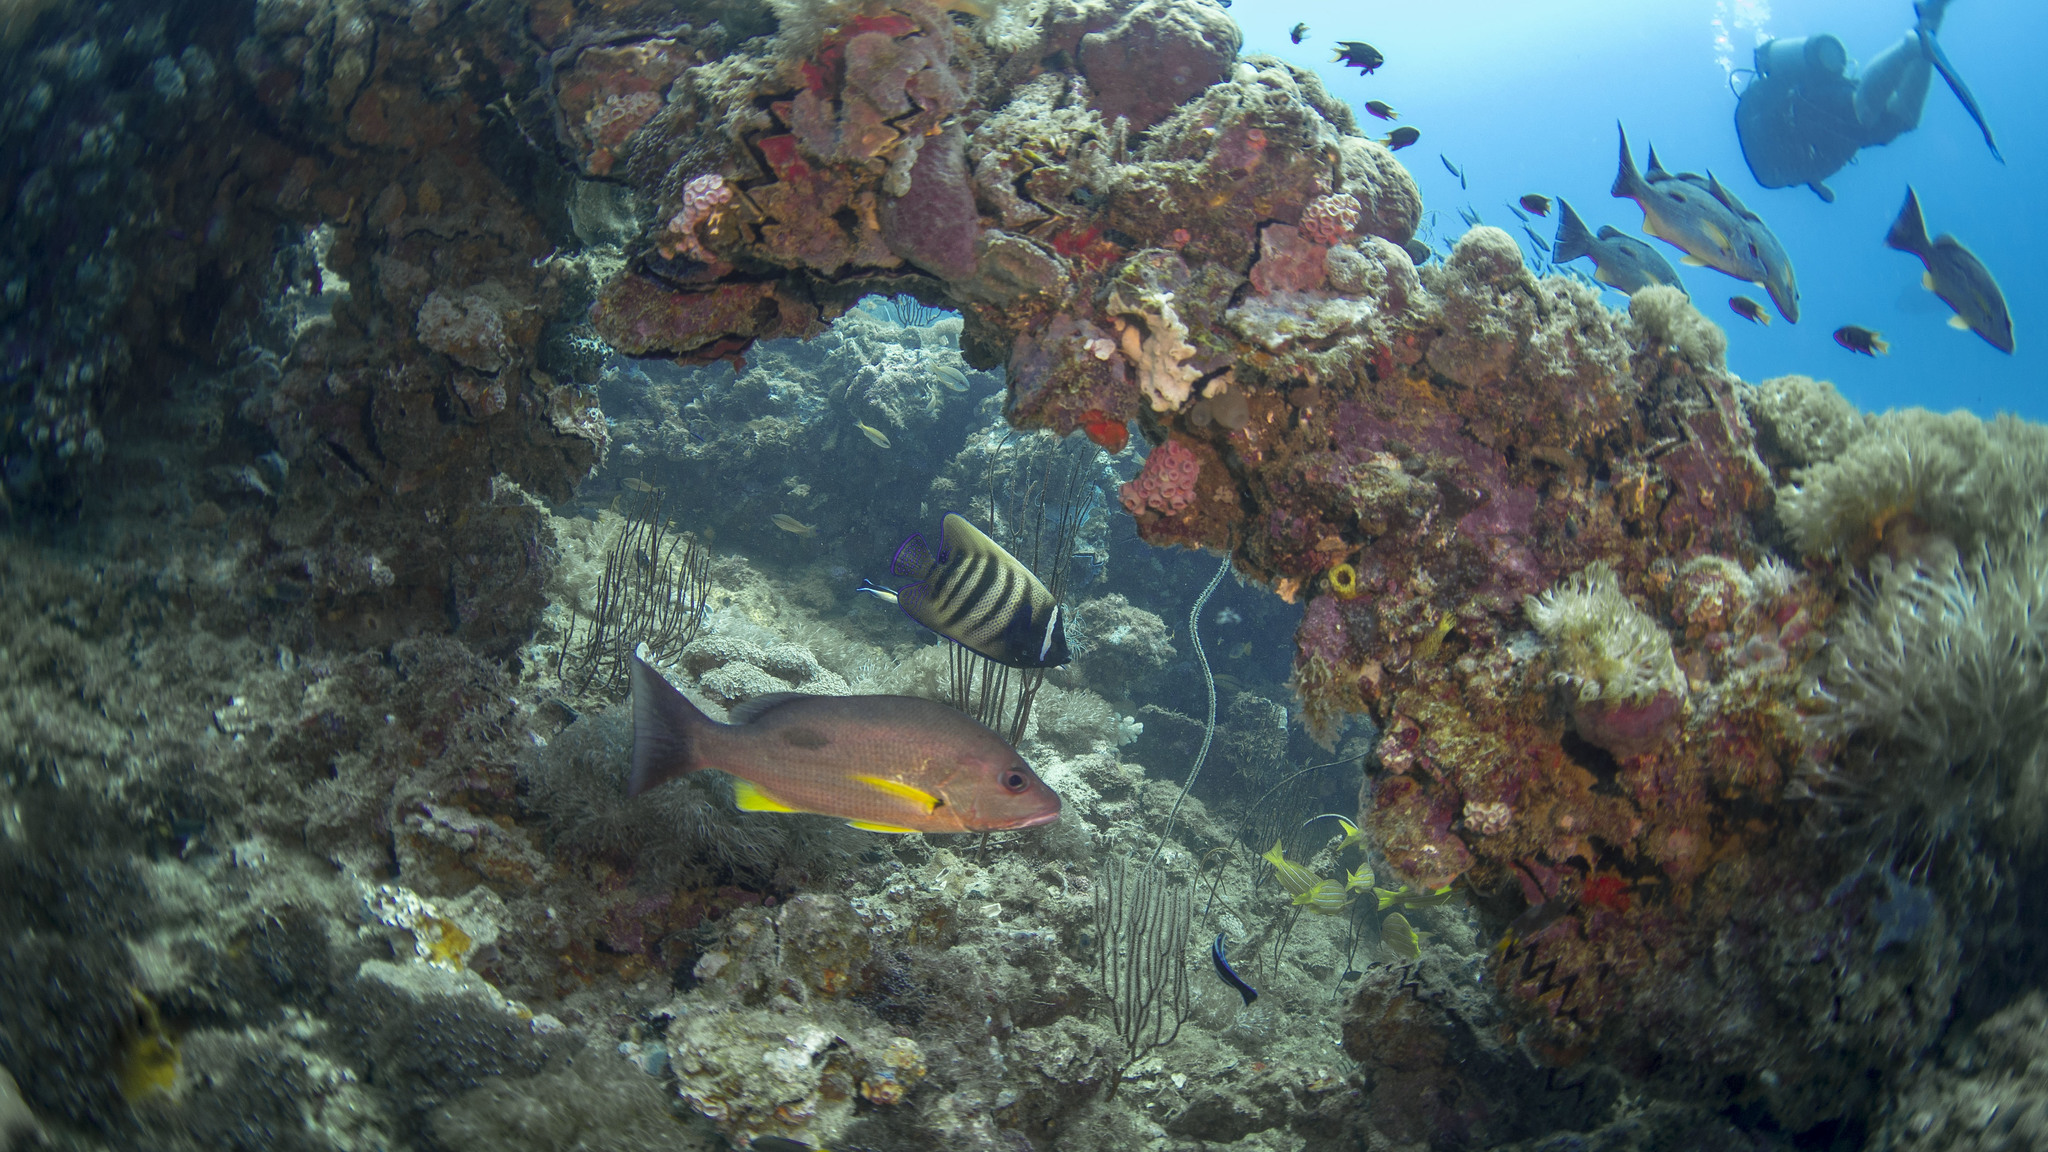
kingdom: Animalia
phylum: Chordata
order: Perciformes
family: Pomacanthidae
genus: Pomacanthus
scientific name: Pomacanthus sexstriatus
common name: Six-banded angelfish
